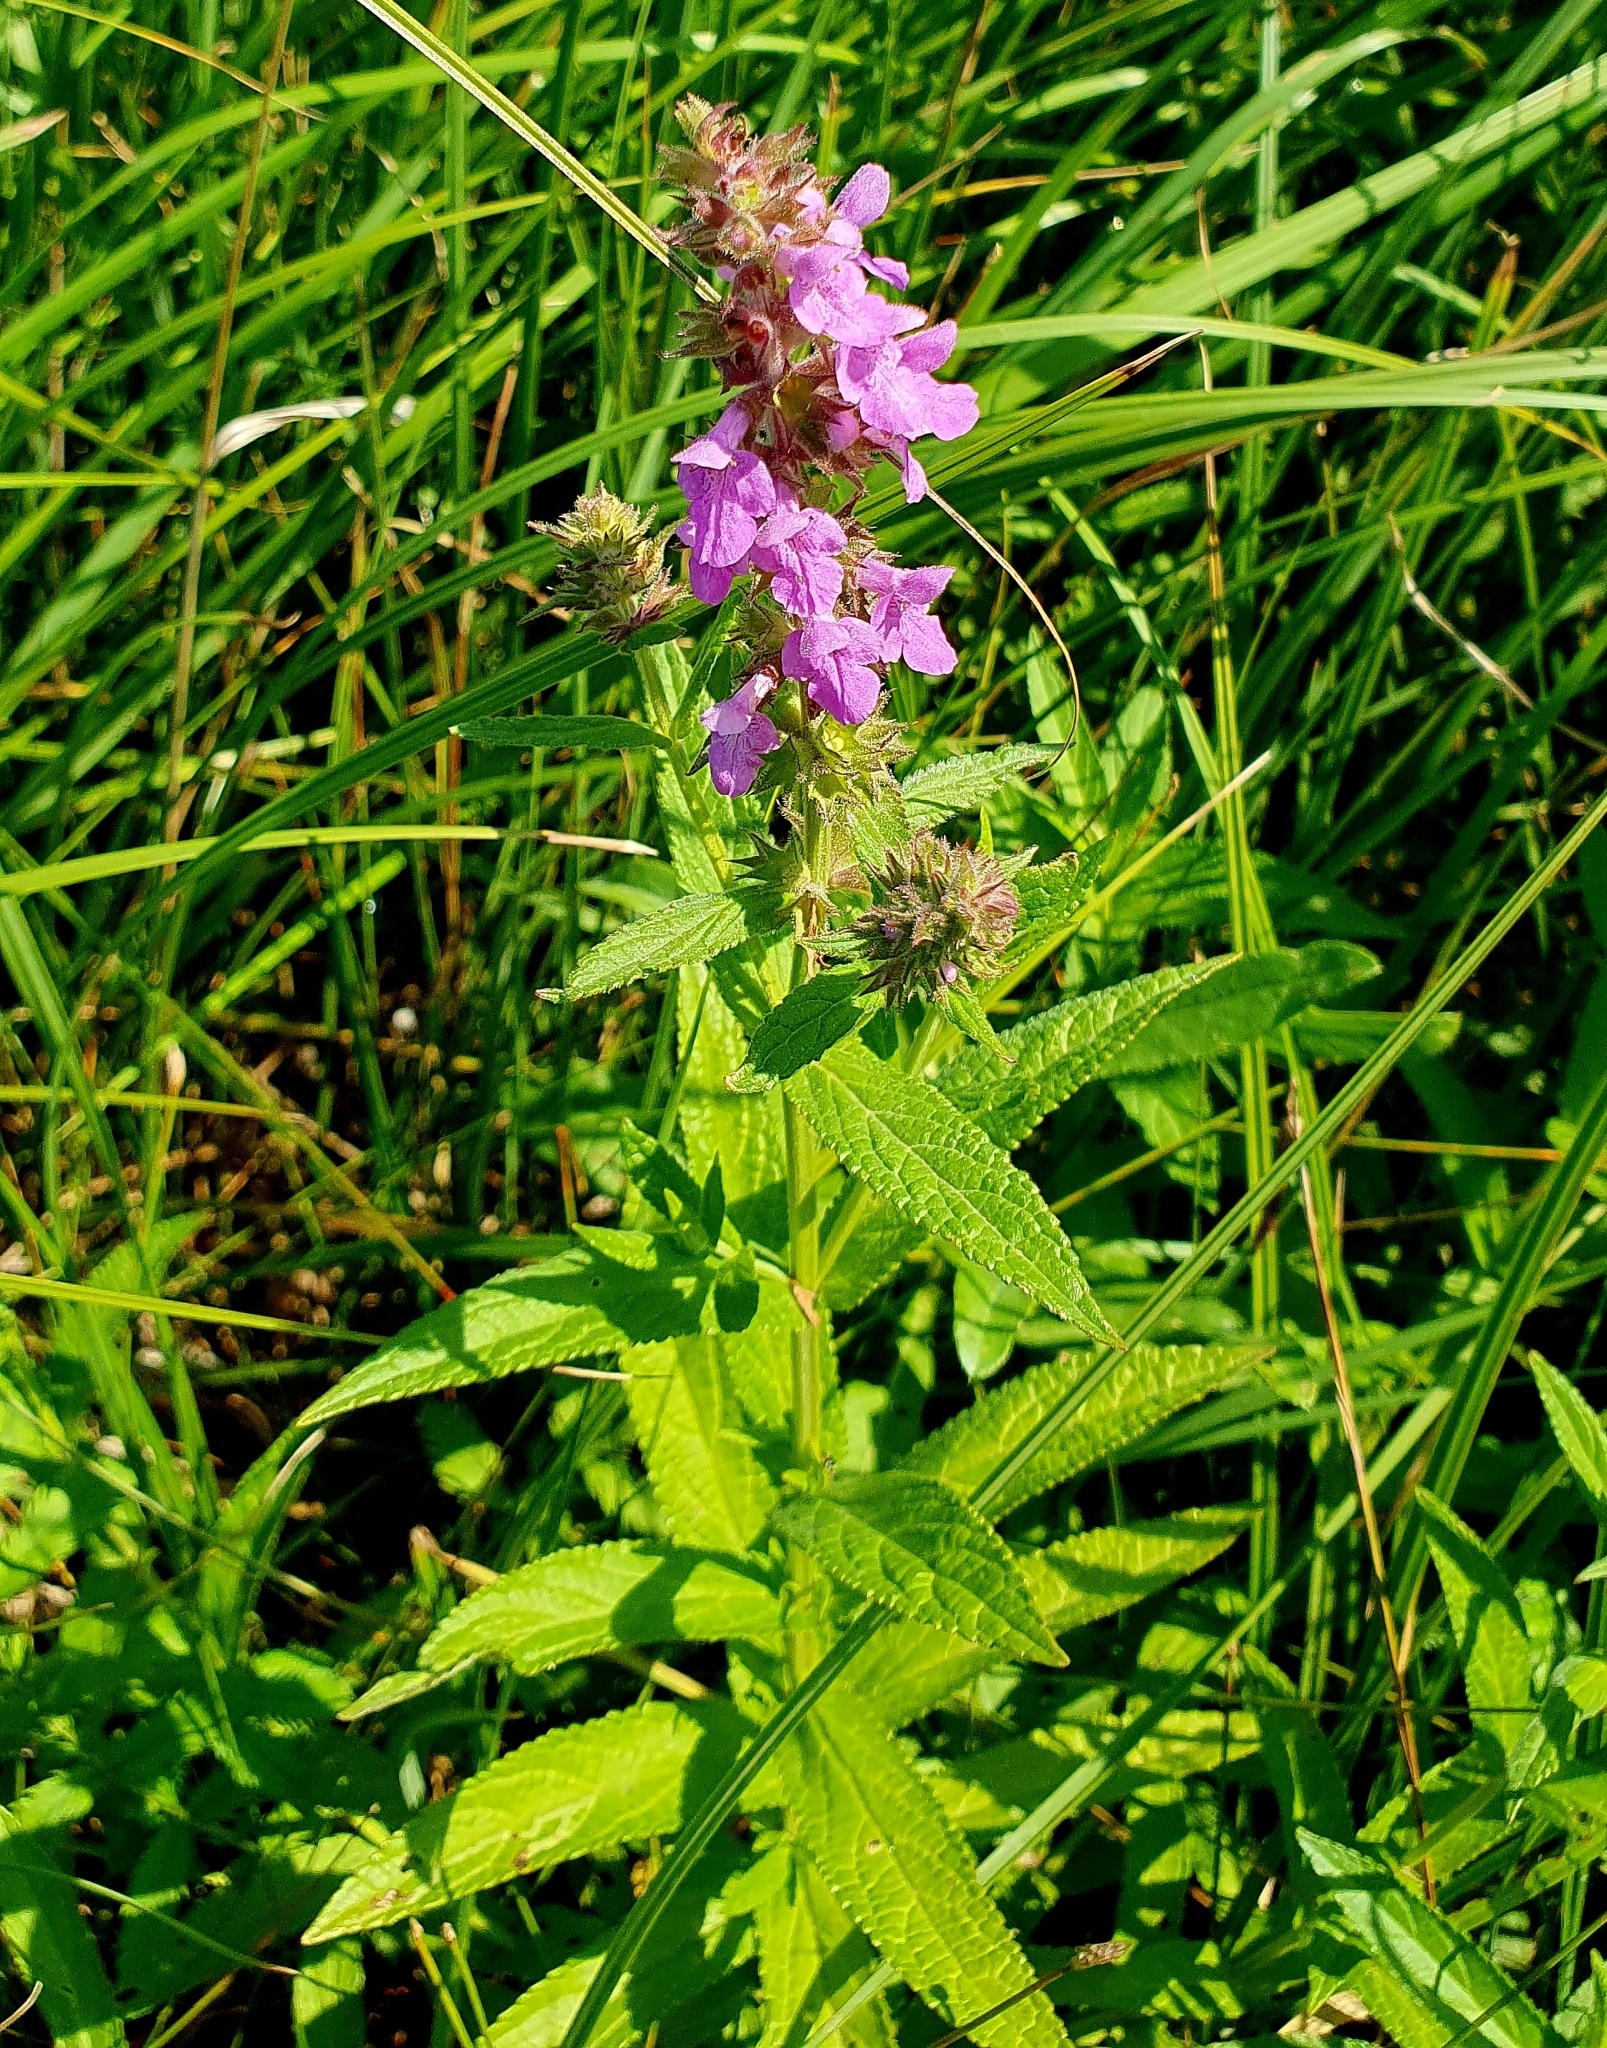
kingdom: Plantae
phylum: Tracheophyta
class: Magnoliopsida
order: Lamiales
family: Lamiaceae
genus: Stachys
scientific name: Stachys palustris
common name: Marsh woundwort
